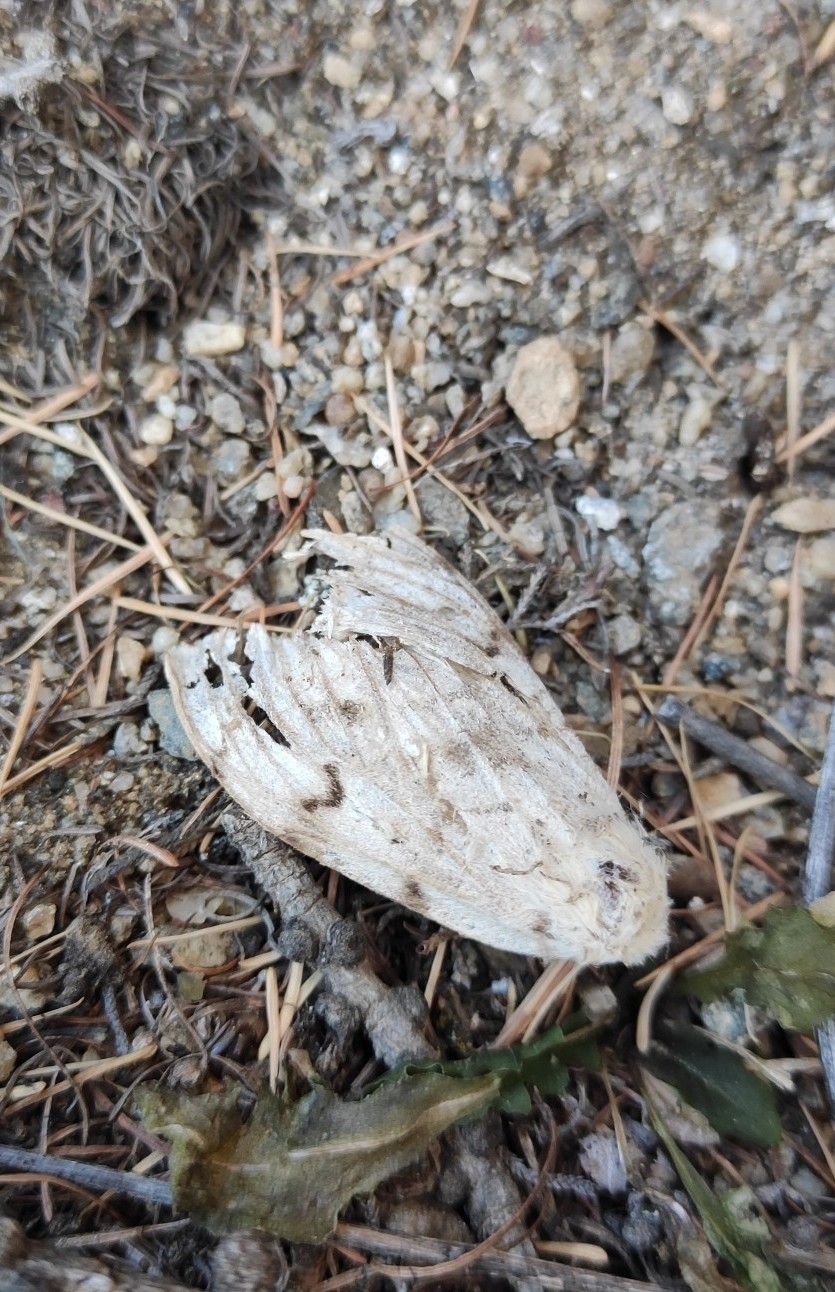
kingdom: Animalia
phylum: Arthropoda
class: Insecta
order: Lepidoptera
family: Erebidae
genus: Lymantria
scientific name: Lymantria dispar
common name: Gypsy moth
